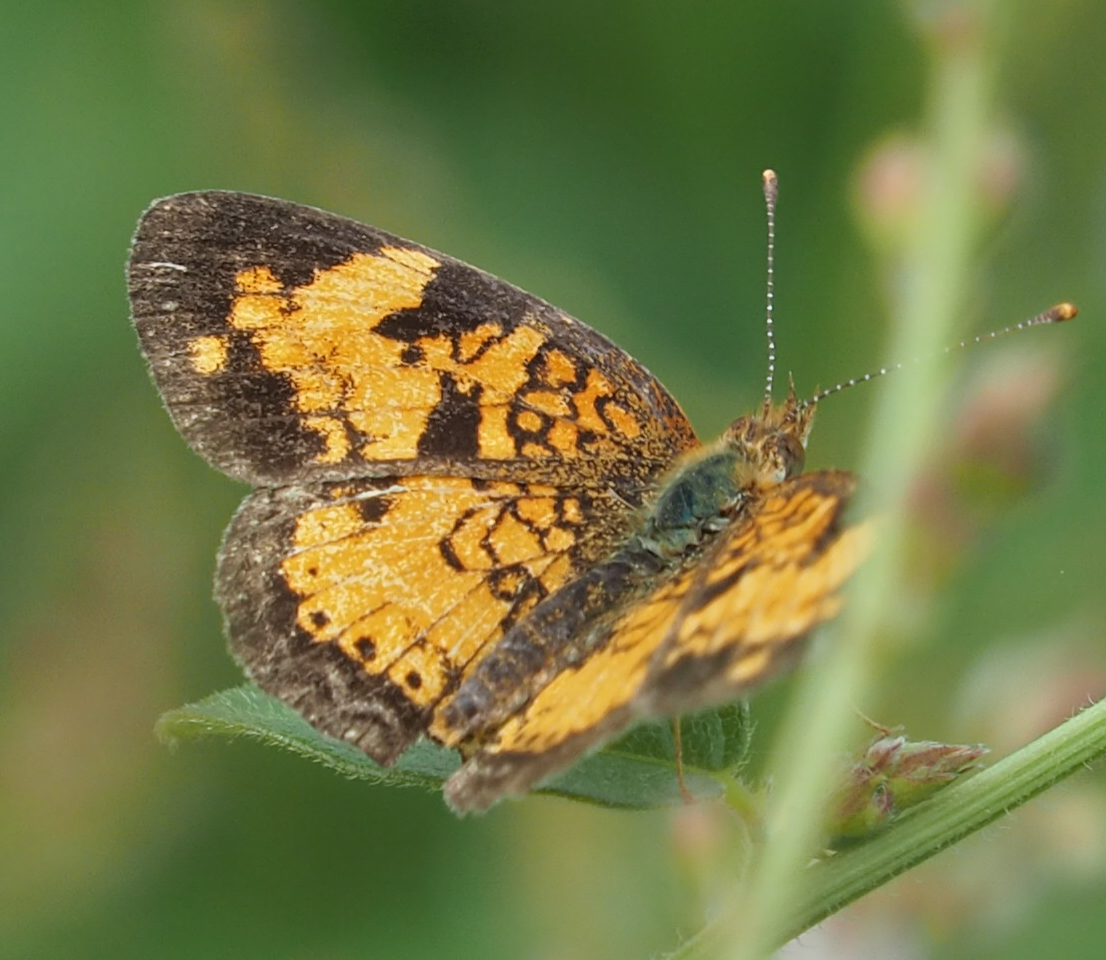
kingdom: Animalia
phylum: Arthropoda
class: Insecta
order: Lepidoptera
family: Nymphalidae
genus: Phyciodes
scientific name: Phyciodes tharos
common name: Pearl crescent
